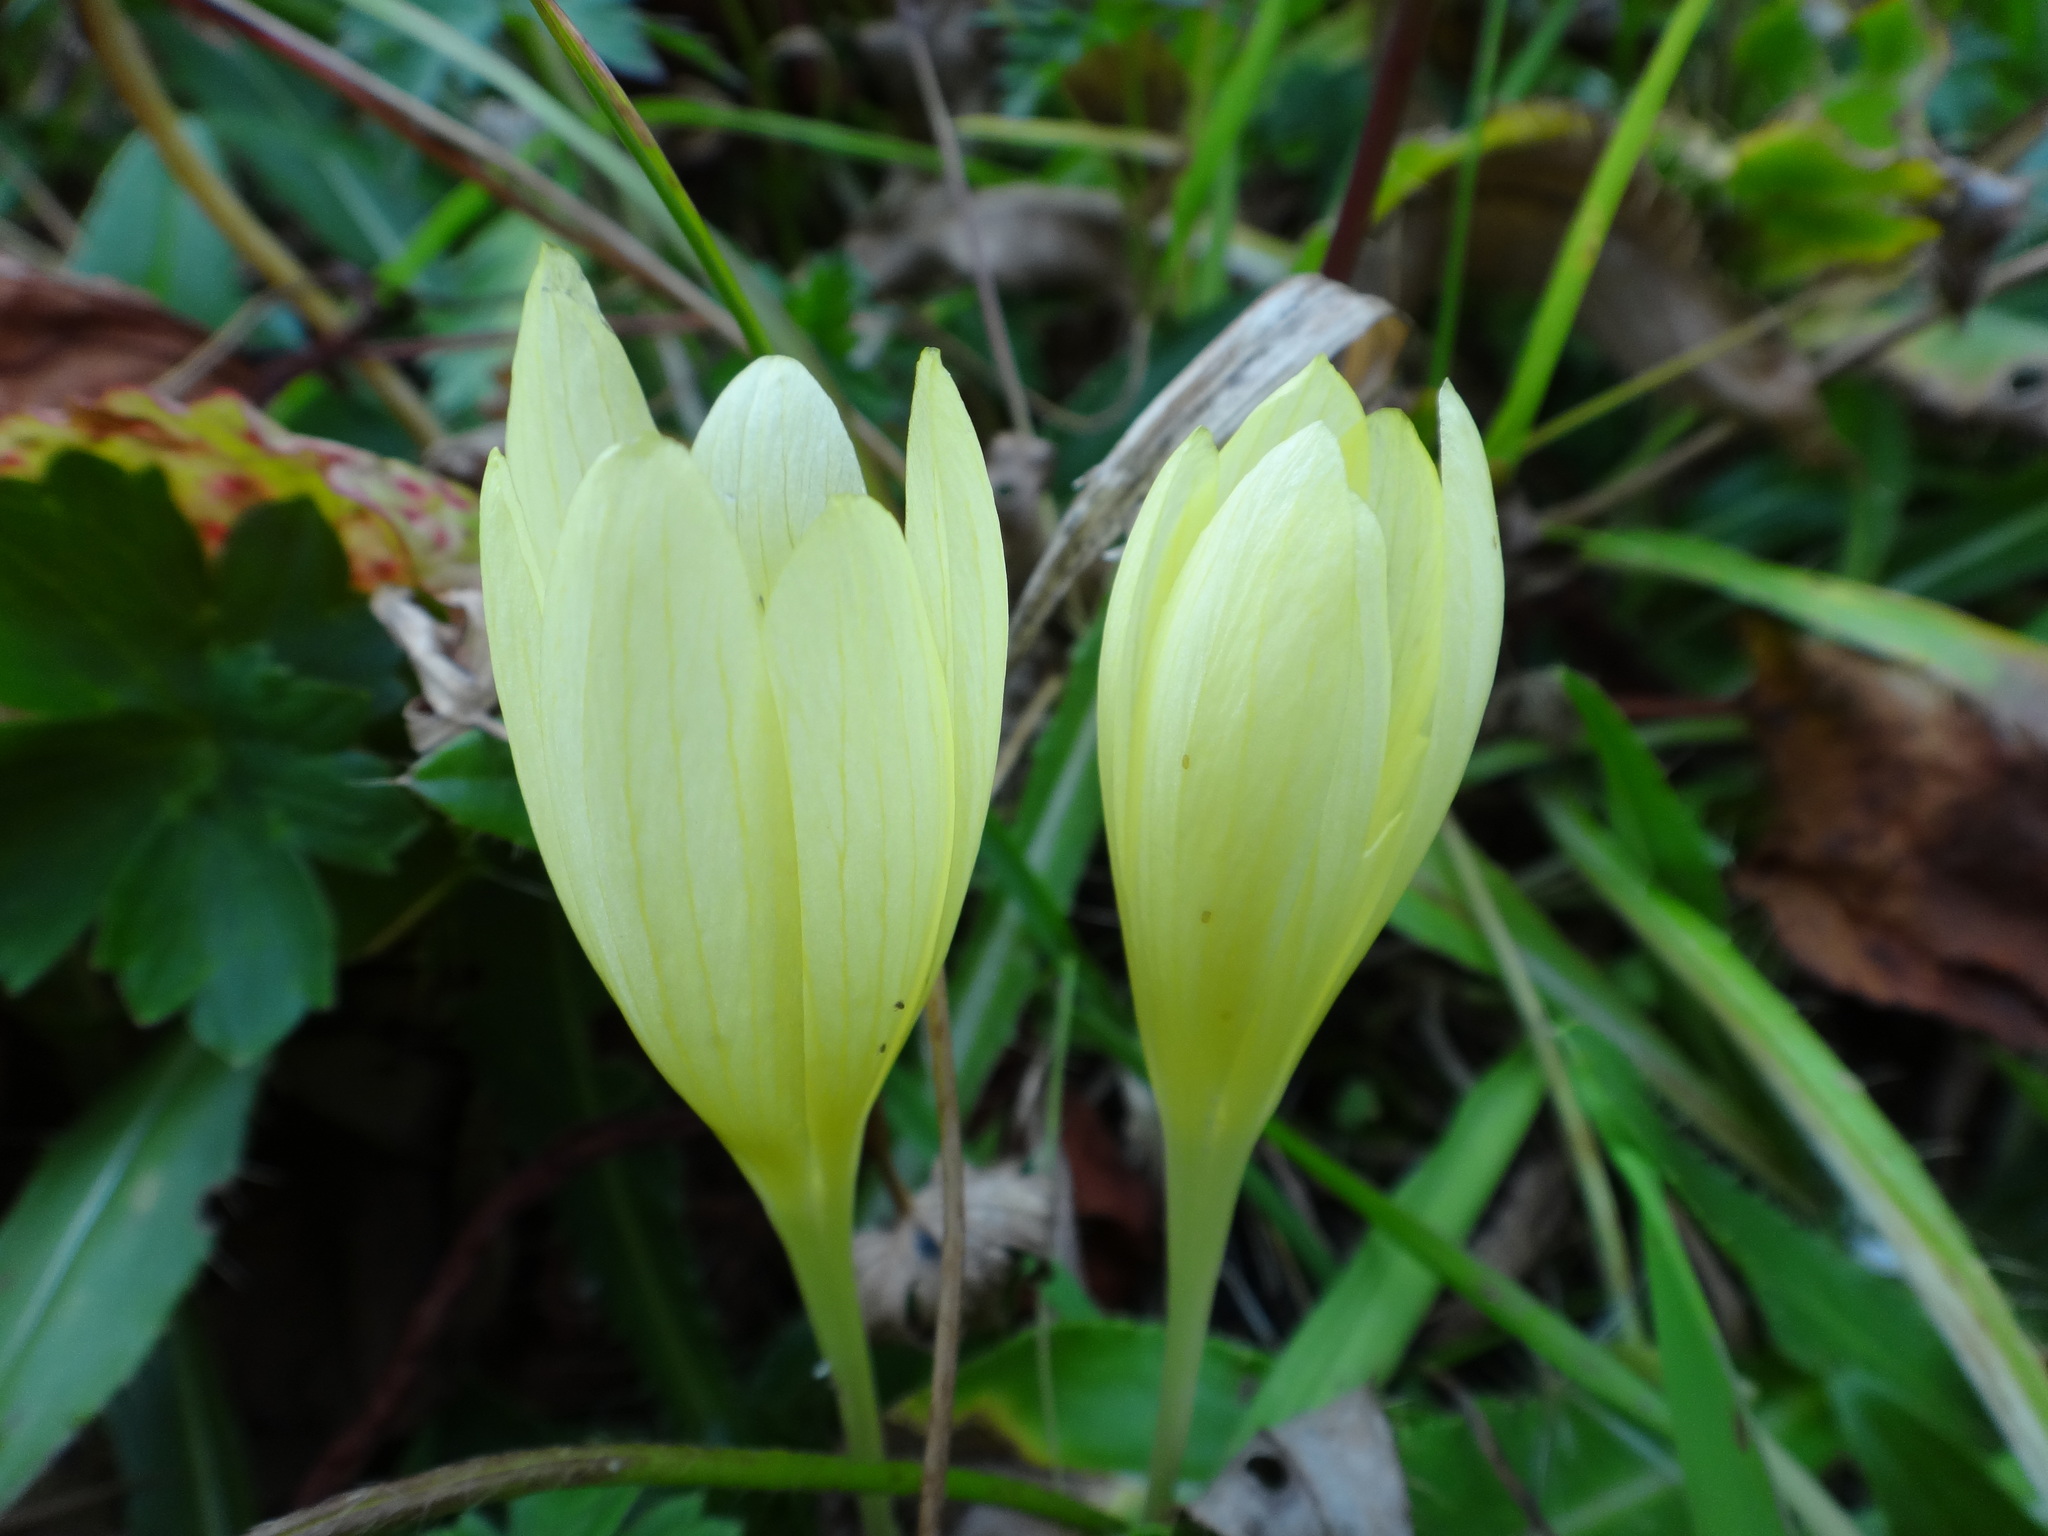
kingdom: Plantae
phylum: Tracheophyta
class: Liliopsida
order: Asparagales
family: Iridaceae
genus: Crocus
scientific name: Crocus suworowianus
